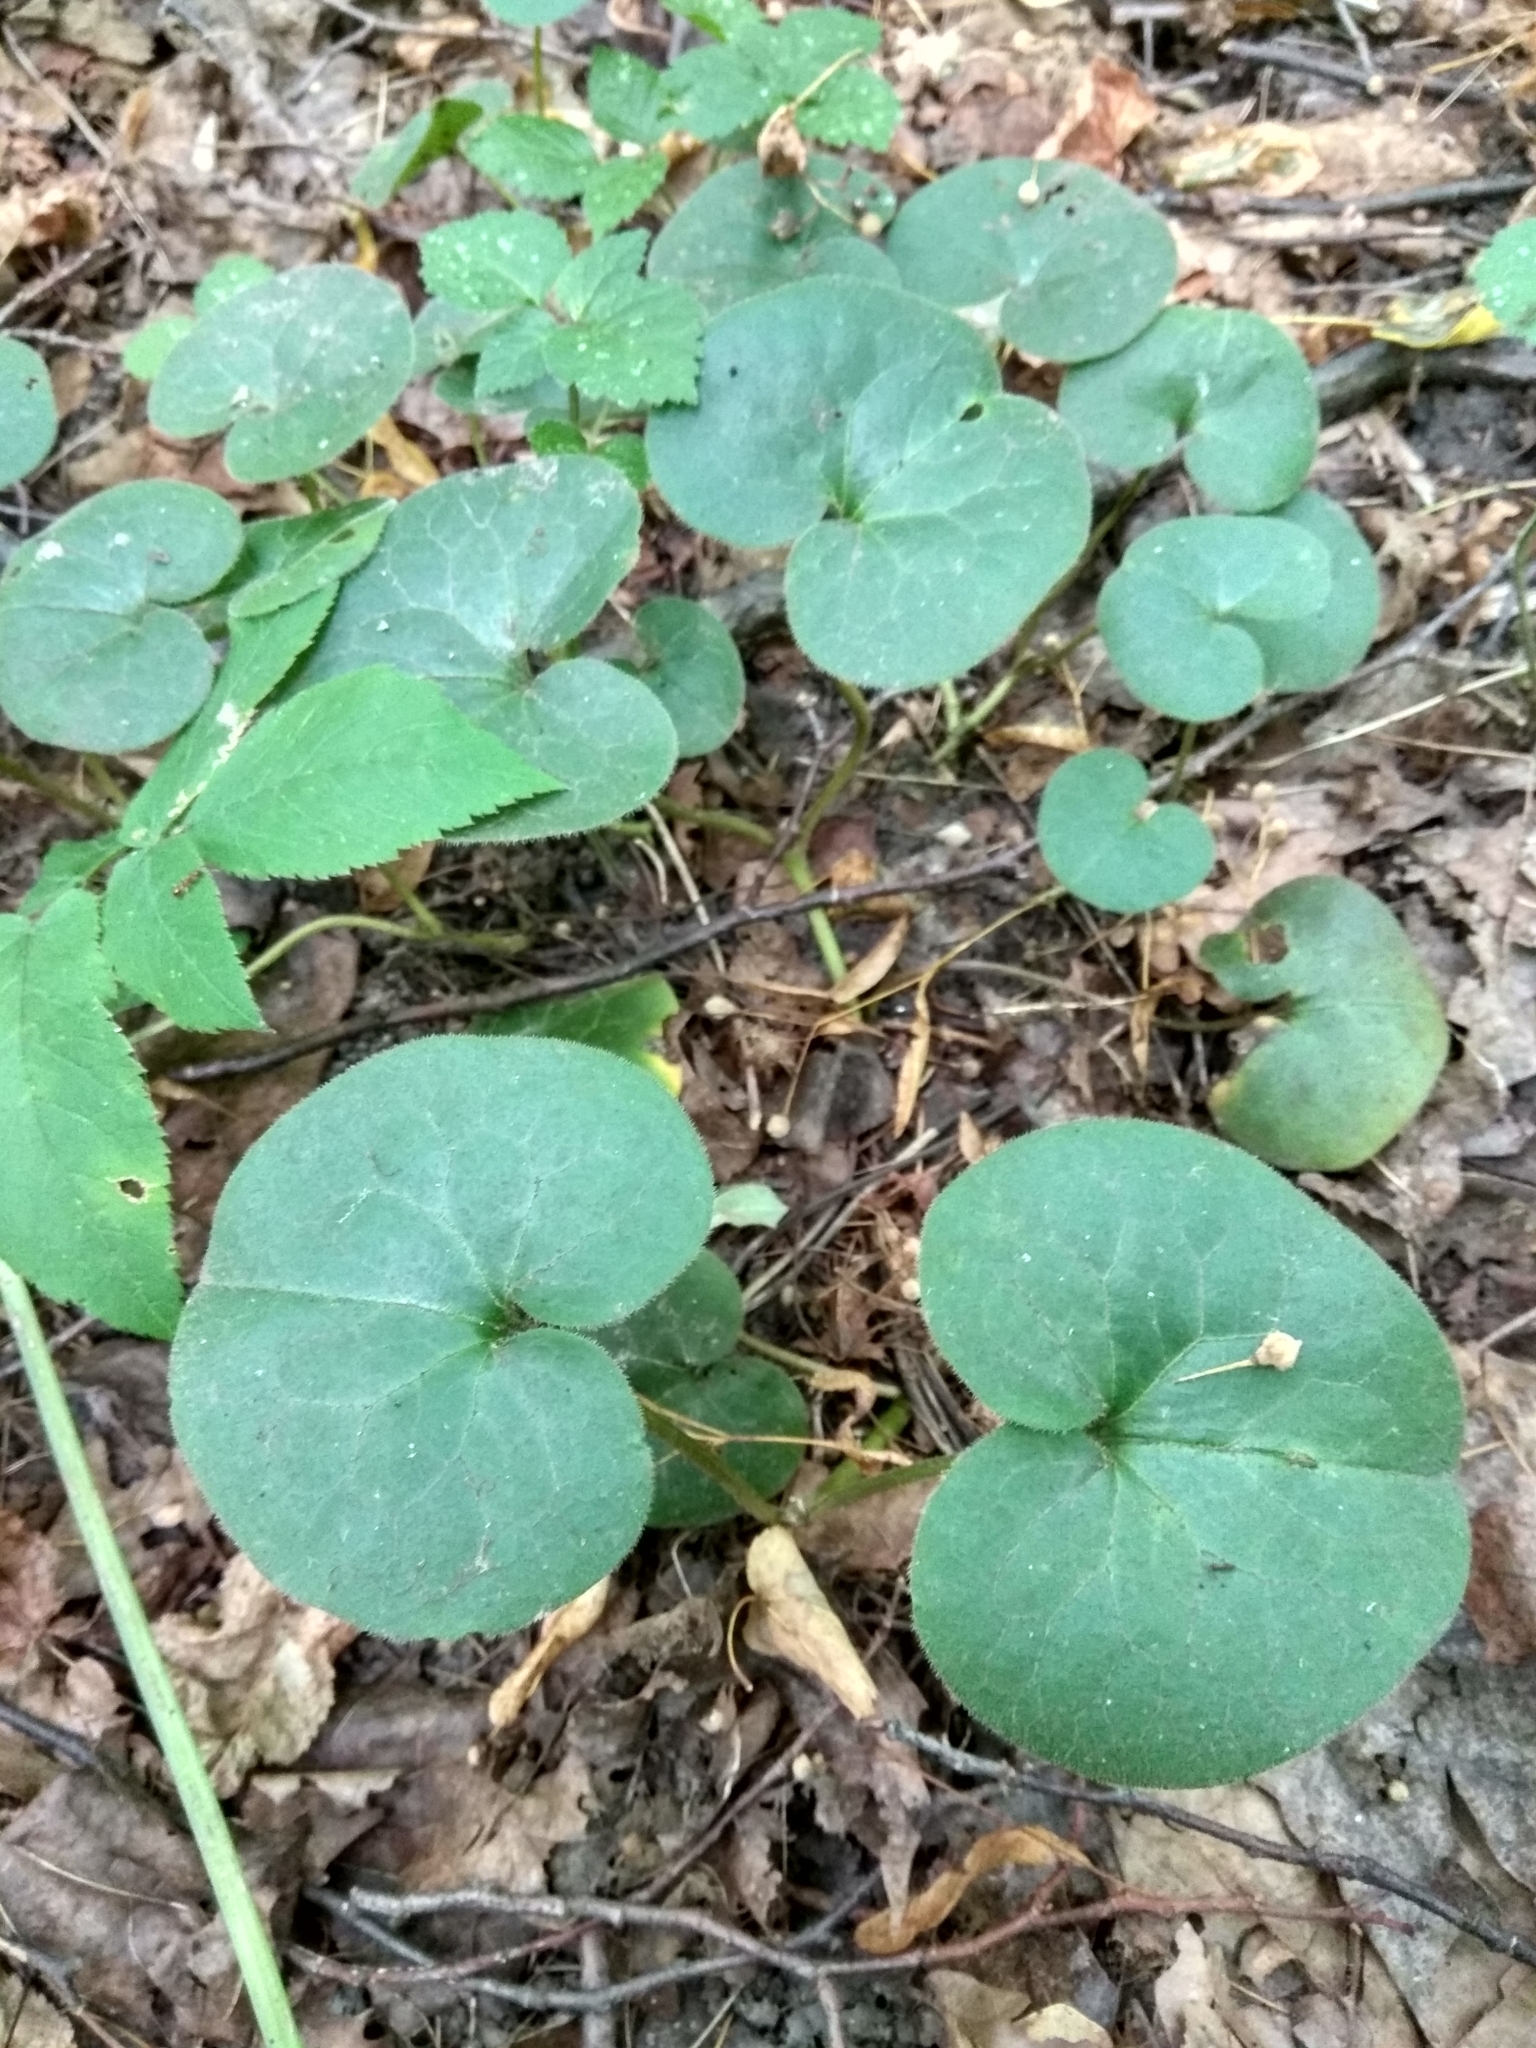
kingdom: Plantae
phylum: Tracheophyta
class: Magnoliopsida
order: Piperales
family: Aristolochiaceae
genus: Asarum
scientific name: Asarum europaeum
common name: Asarabacca
